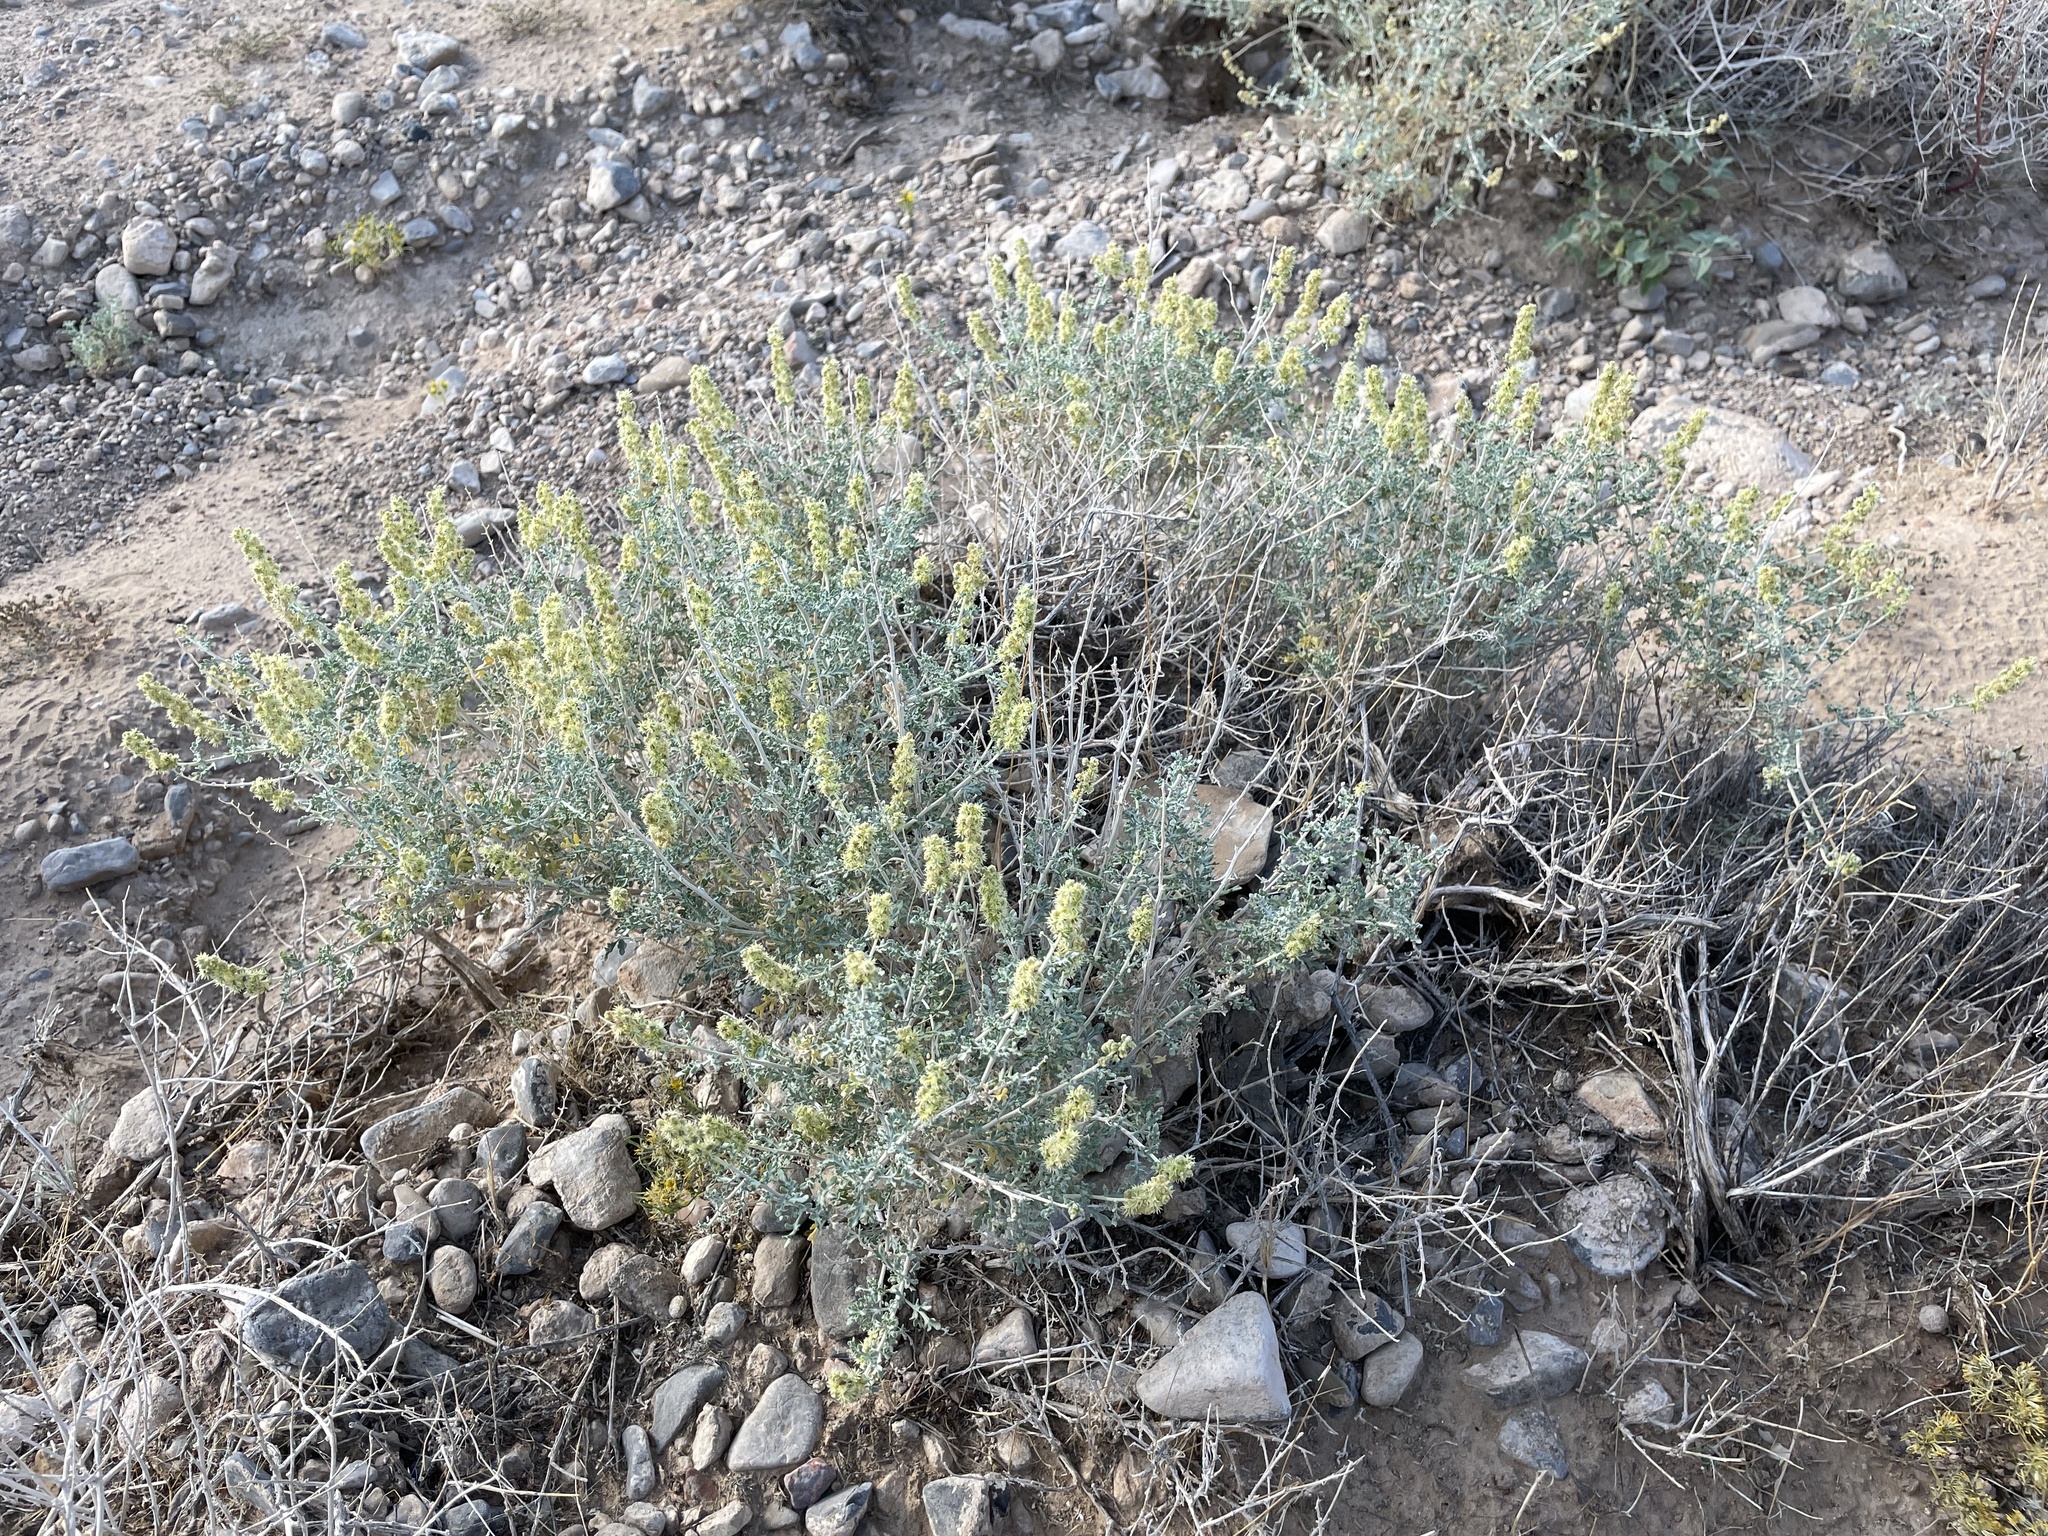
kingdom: Plantae
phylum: Tracheophyta
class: Magnoliopsida
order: Asterales
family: Asteraceae
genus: Ambrosia
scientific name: Ambrosia dumosa
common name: Bur-sage
